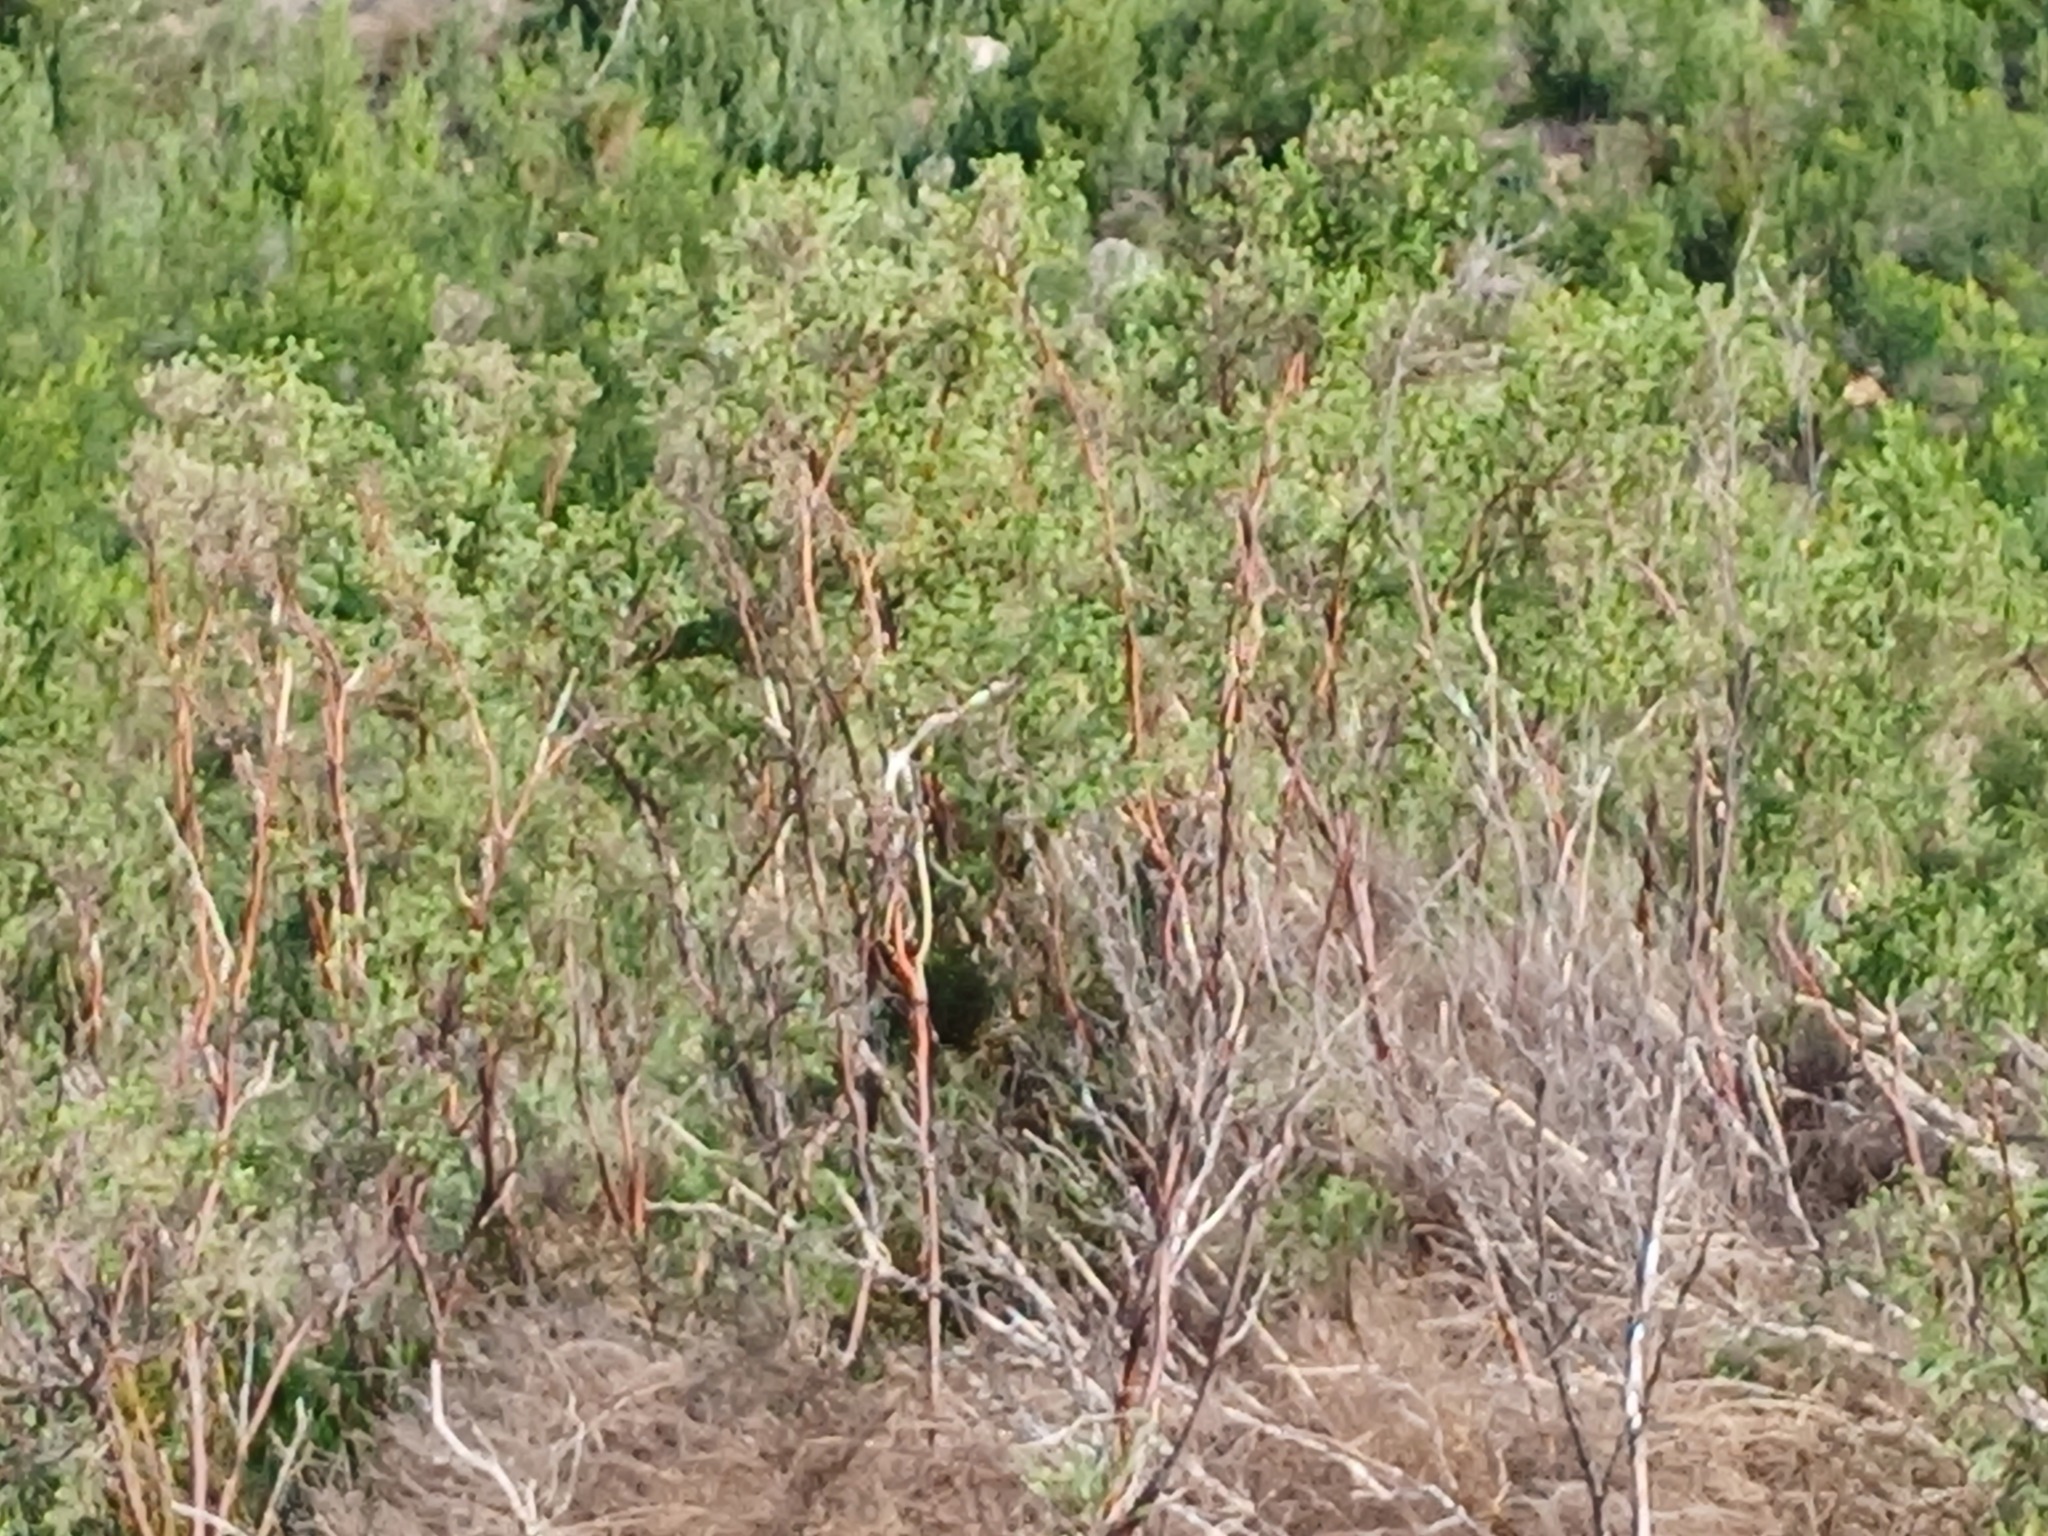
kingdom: Plantae
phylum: Tracheophyta
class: Magnoliopsida
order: Malvales
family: Thymelaeaceae
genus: Passerina
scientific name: Passerina corymbosa
